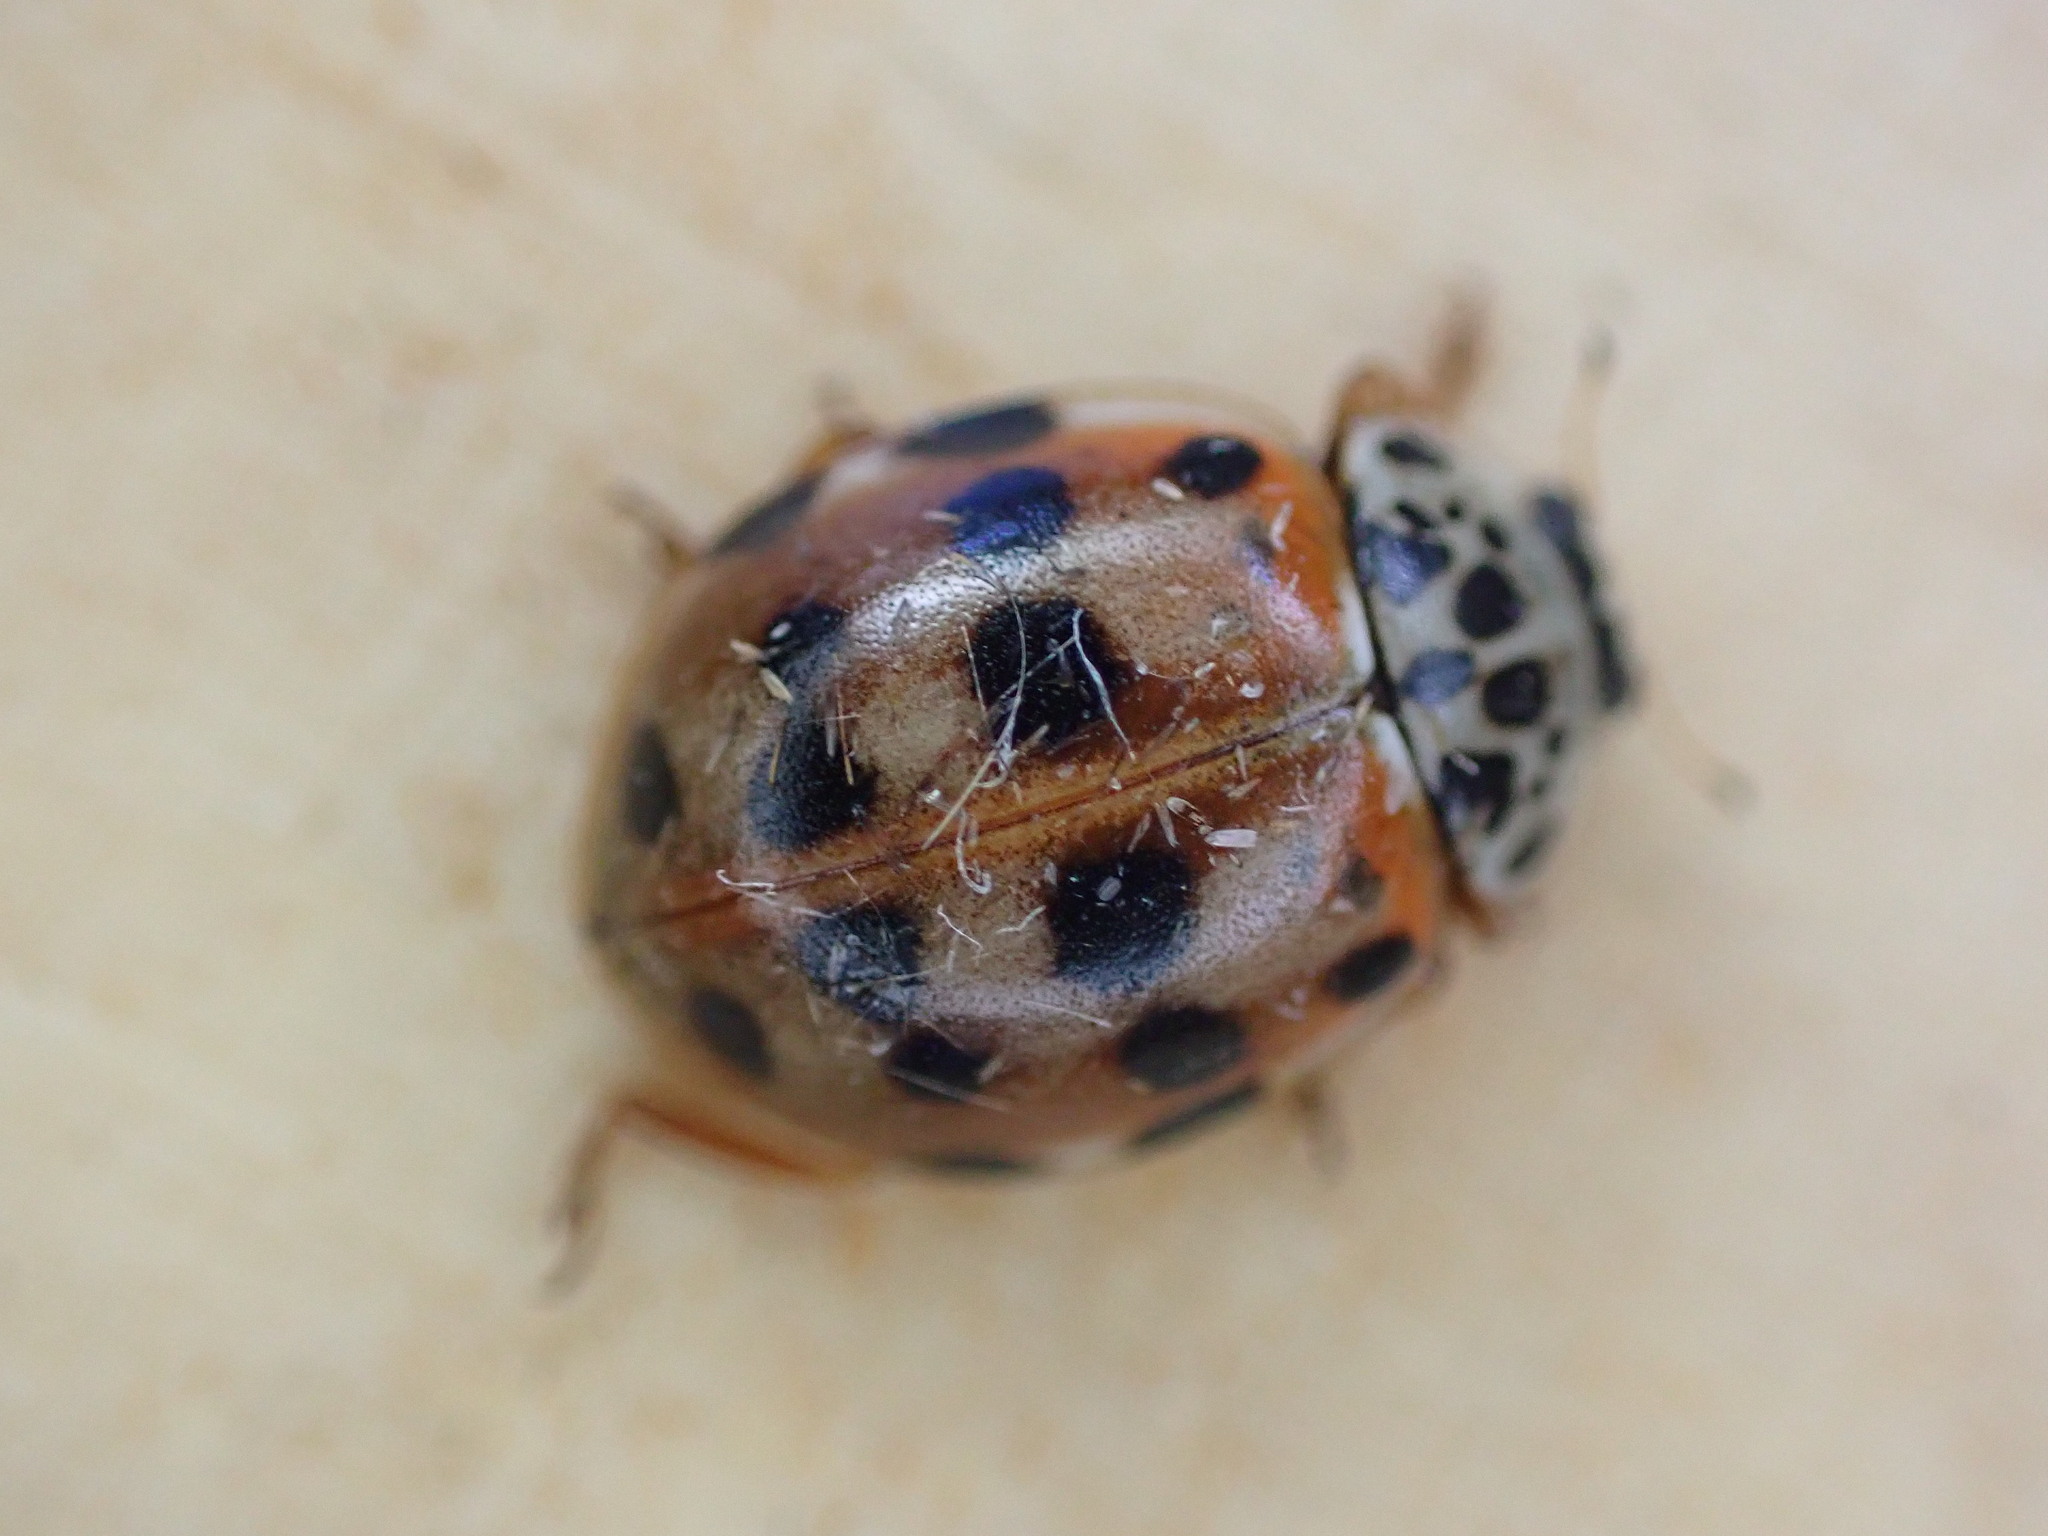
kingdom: Animalia
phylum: Arthropoda
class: Insecta
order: Coleoptera
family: Coccinellidae
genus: Harmonia
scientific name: Harmonia quadripunctata
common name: Cream-streaked ladybird
